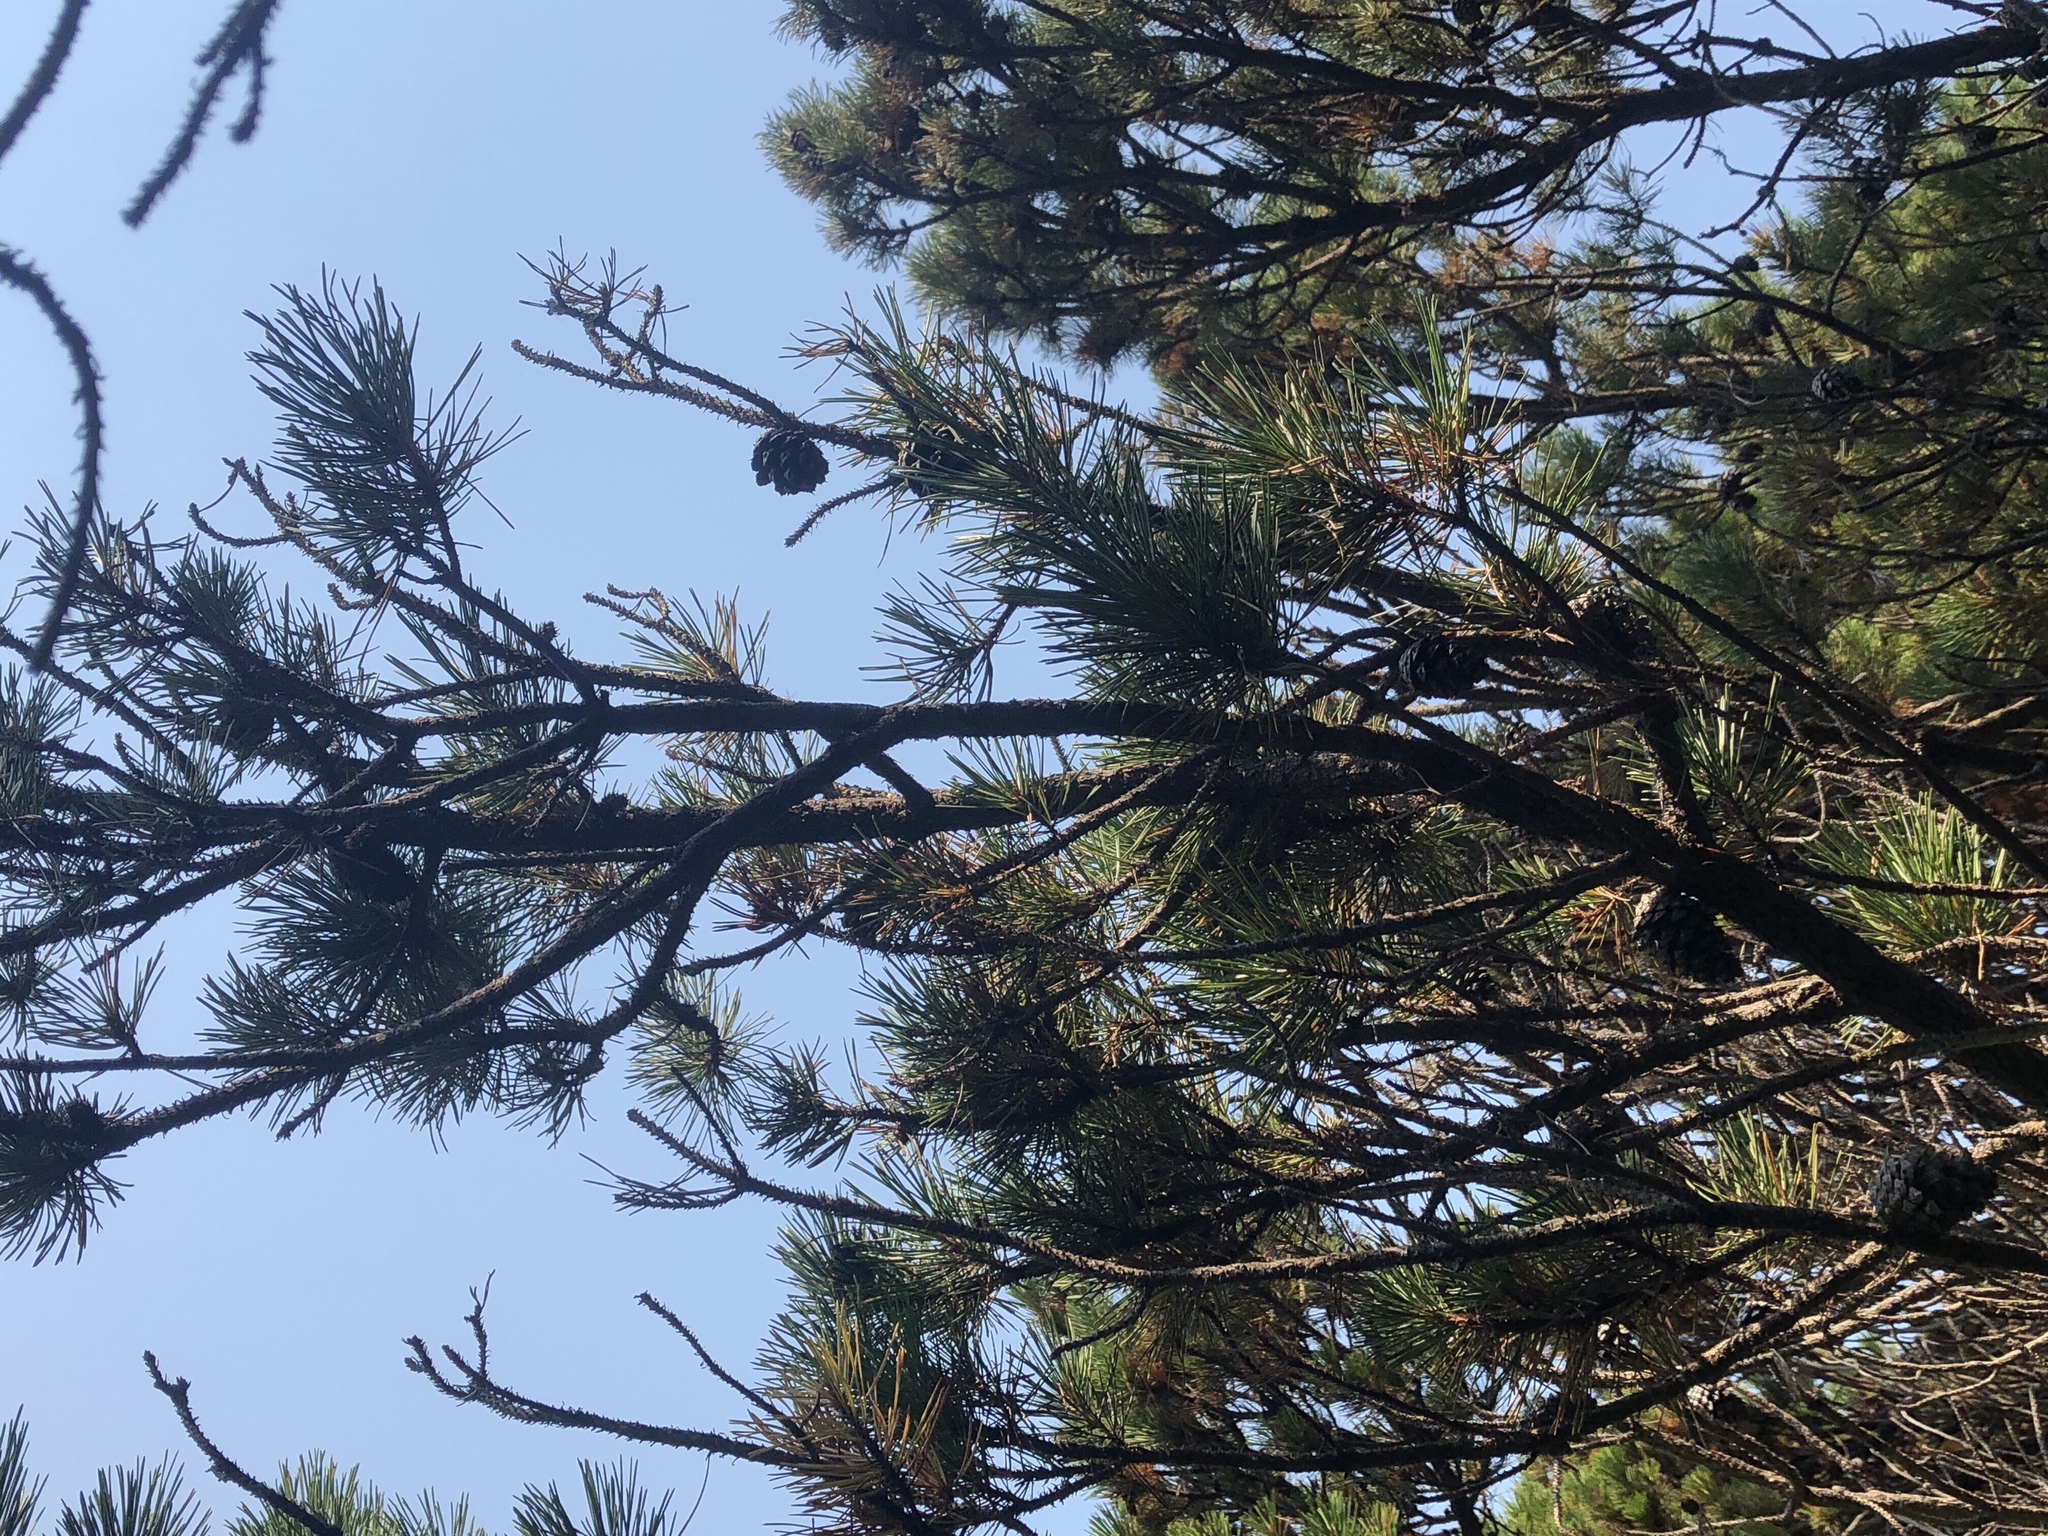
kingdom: Plantae
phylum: Tracheophyta
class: Pinopsida
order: Pinales
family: Pinaceae
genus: Pinus
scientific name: Pinus contorta
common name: Lodgepole pine
